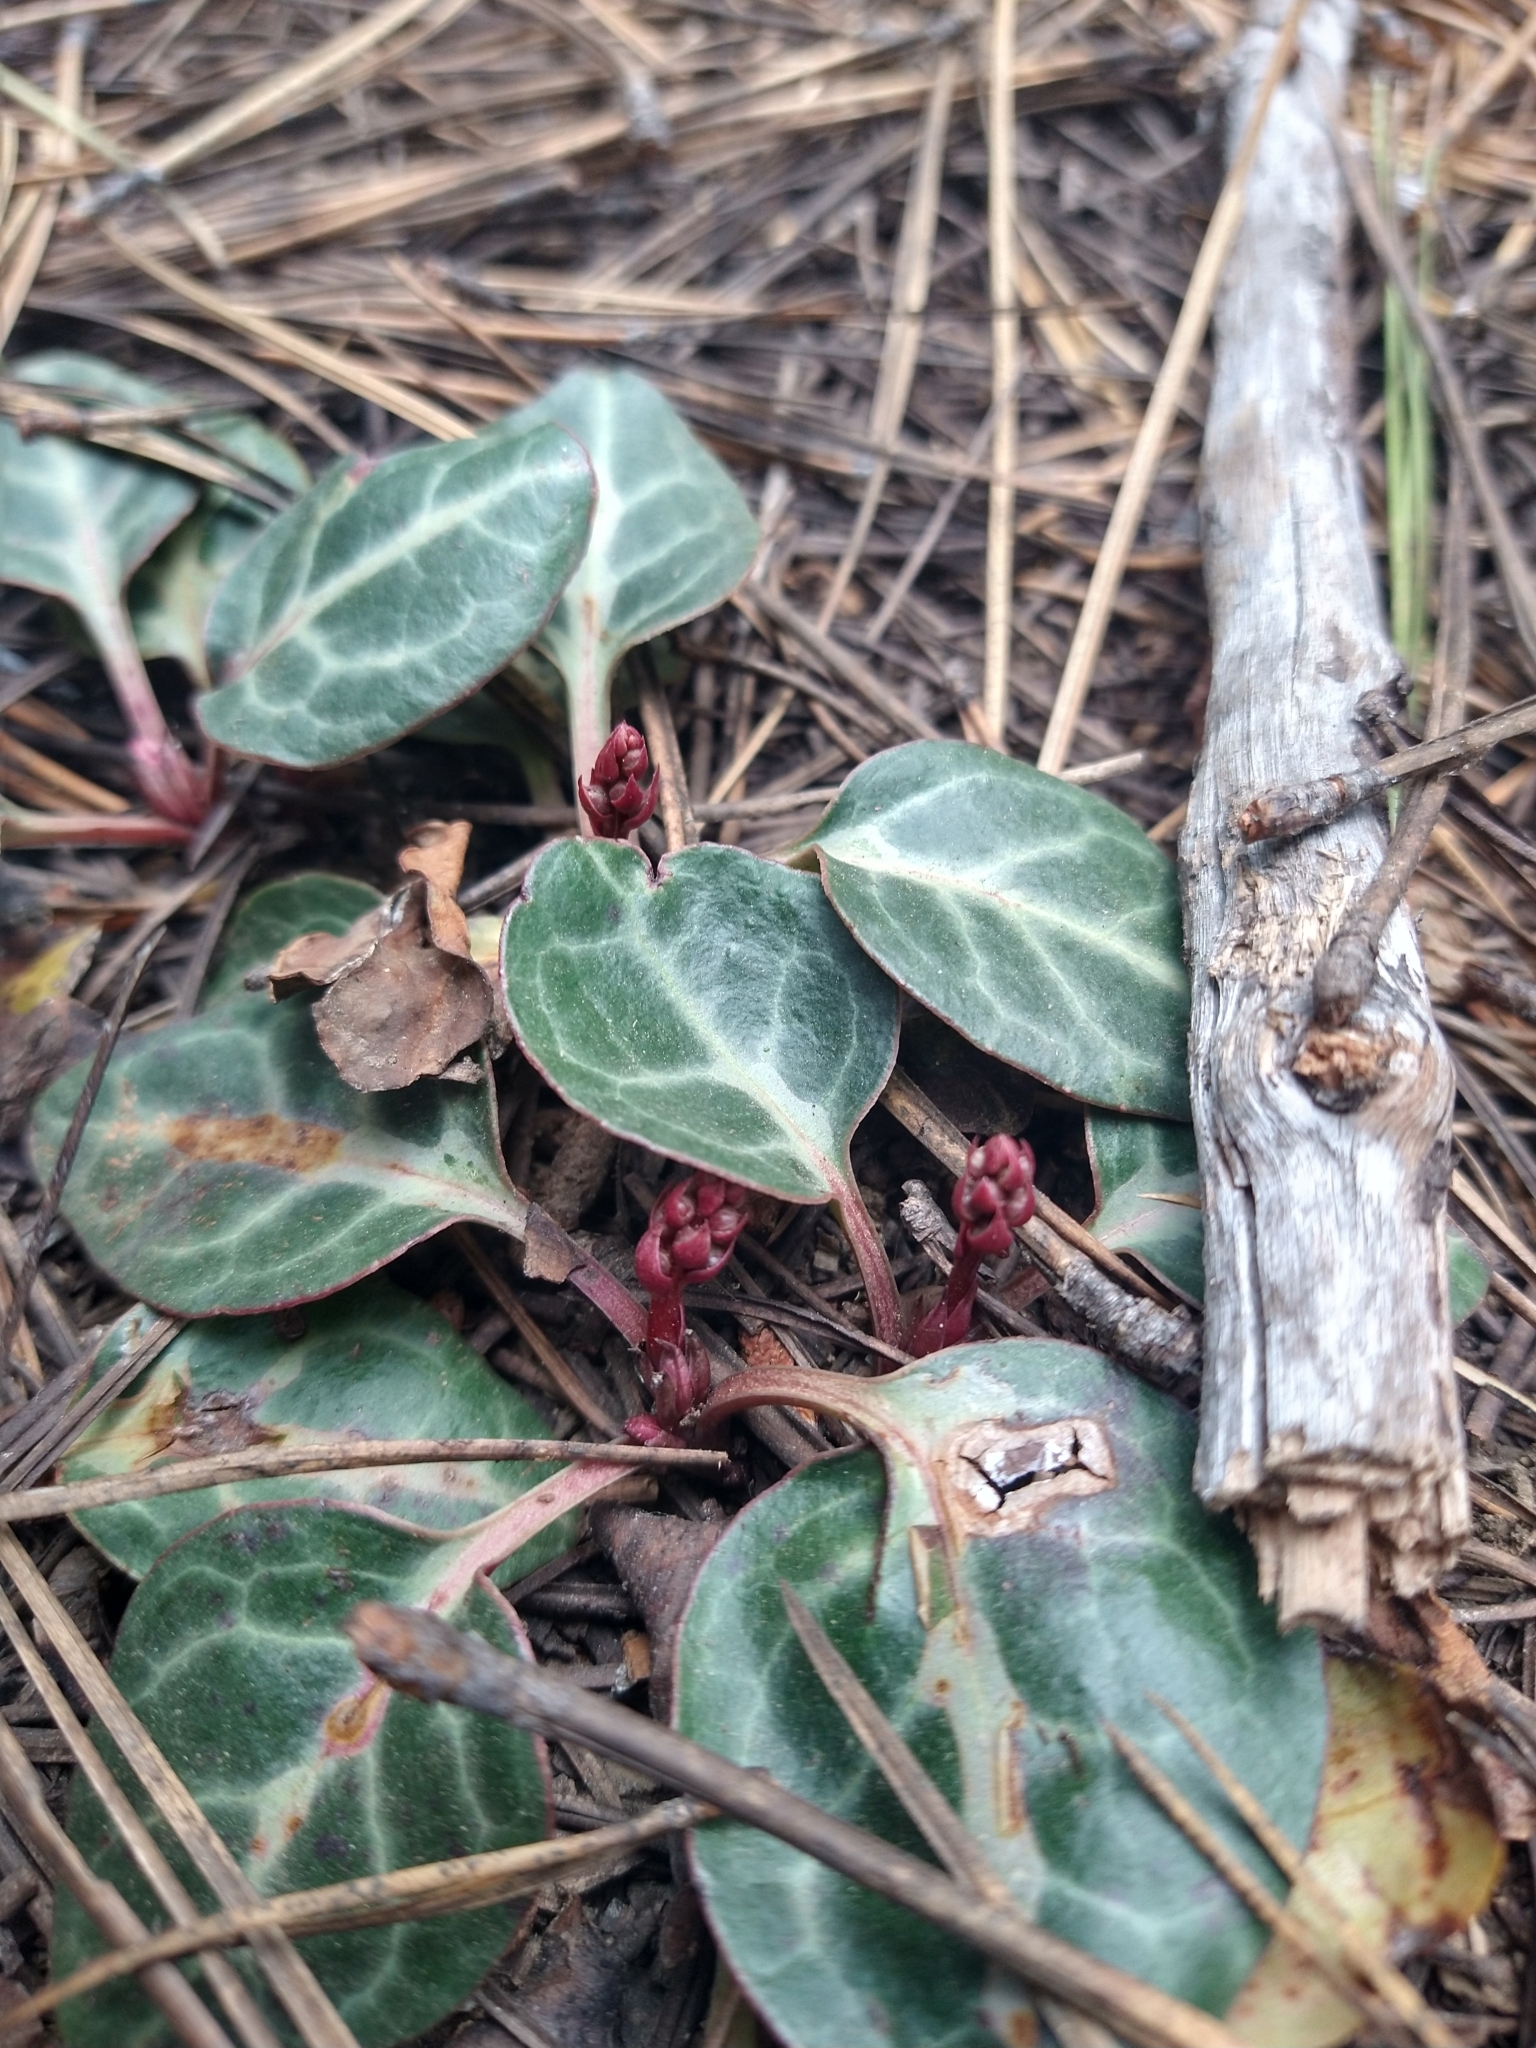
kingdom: Plantae
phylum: Tracheophyta
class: Magnoliopsida
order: Ericales
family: Ericaceae
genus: Pyrola
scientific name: Pyrola picta
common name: White-vein wintergreen
